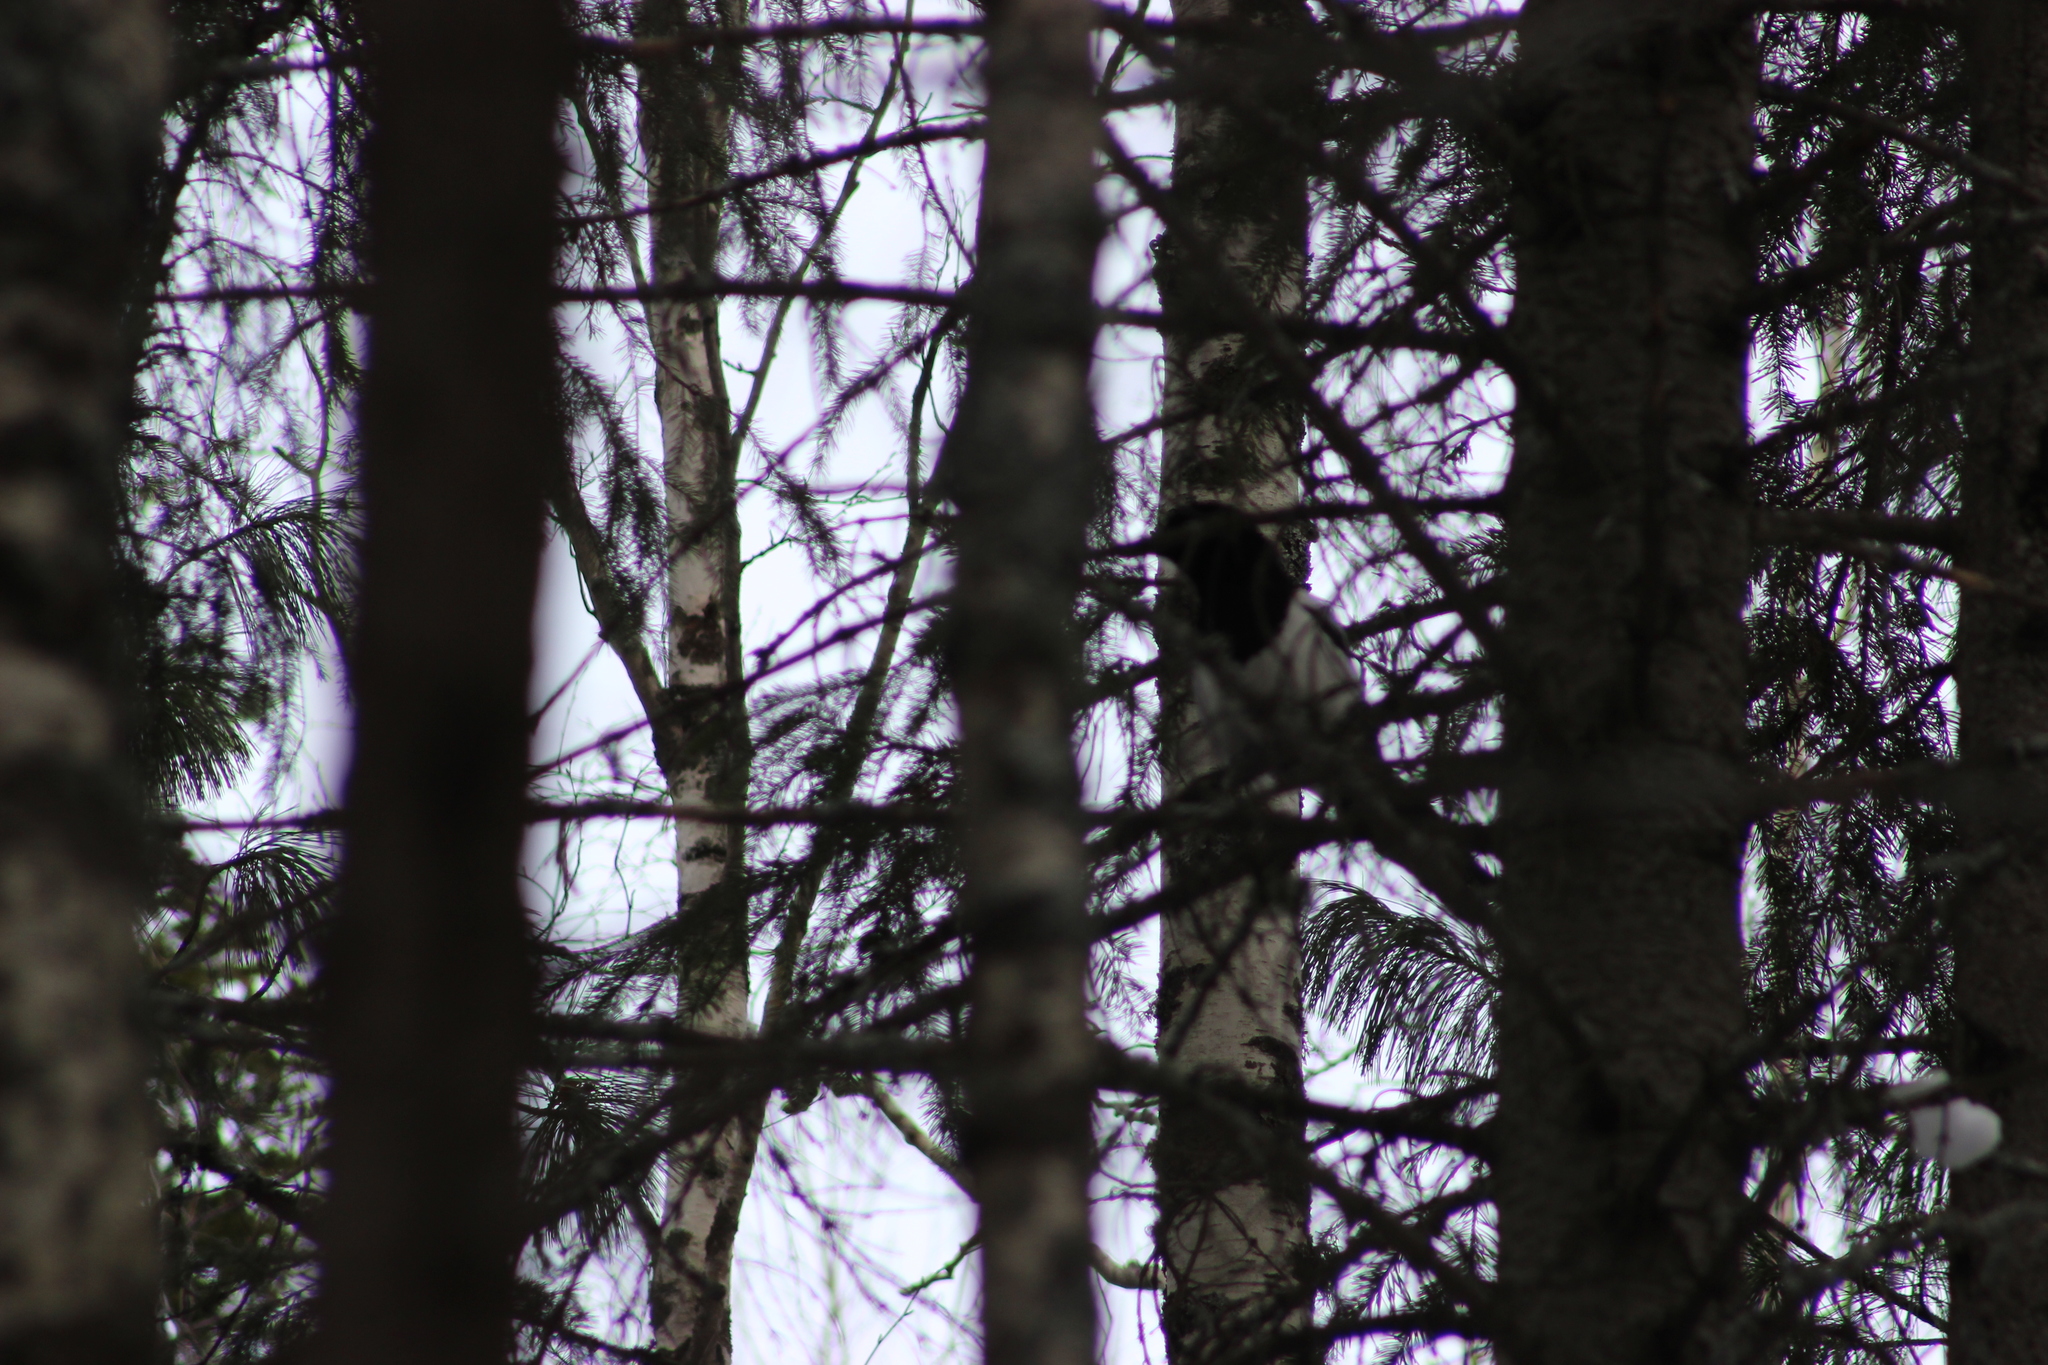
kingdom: Animalia
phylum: Chordata
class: Aves
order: Passeriformes
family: Corvidae
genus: Pica
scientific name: Pica pica
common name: Eurasian magpie
